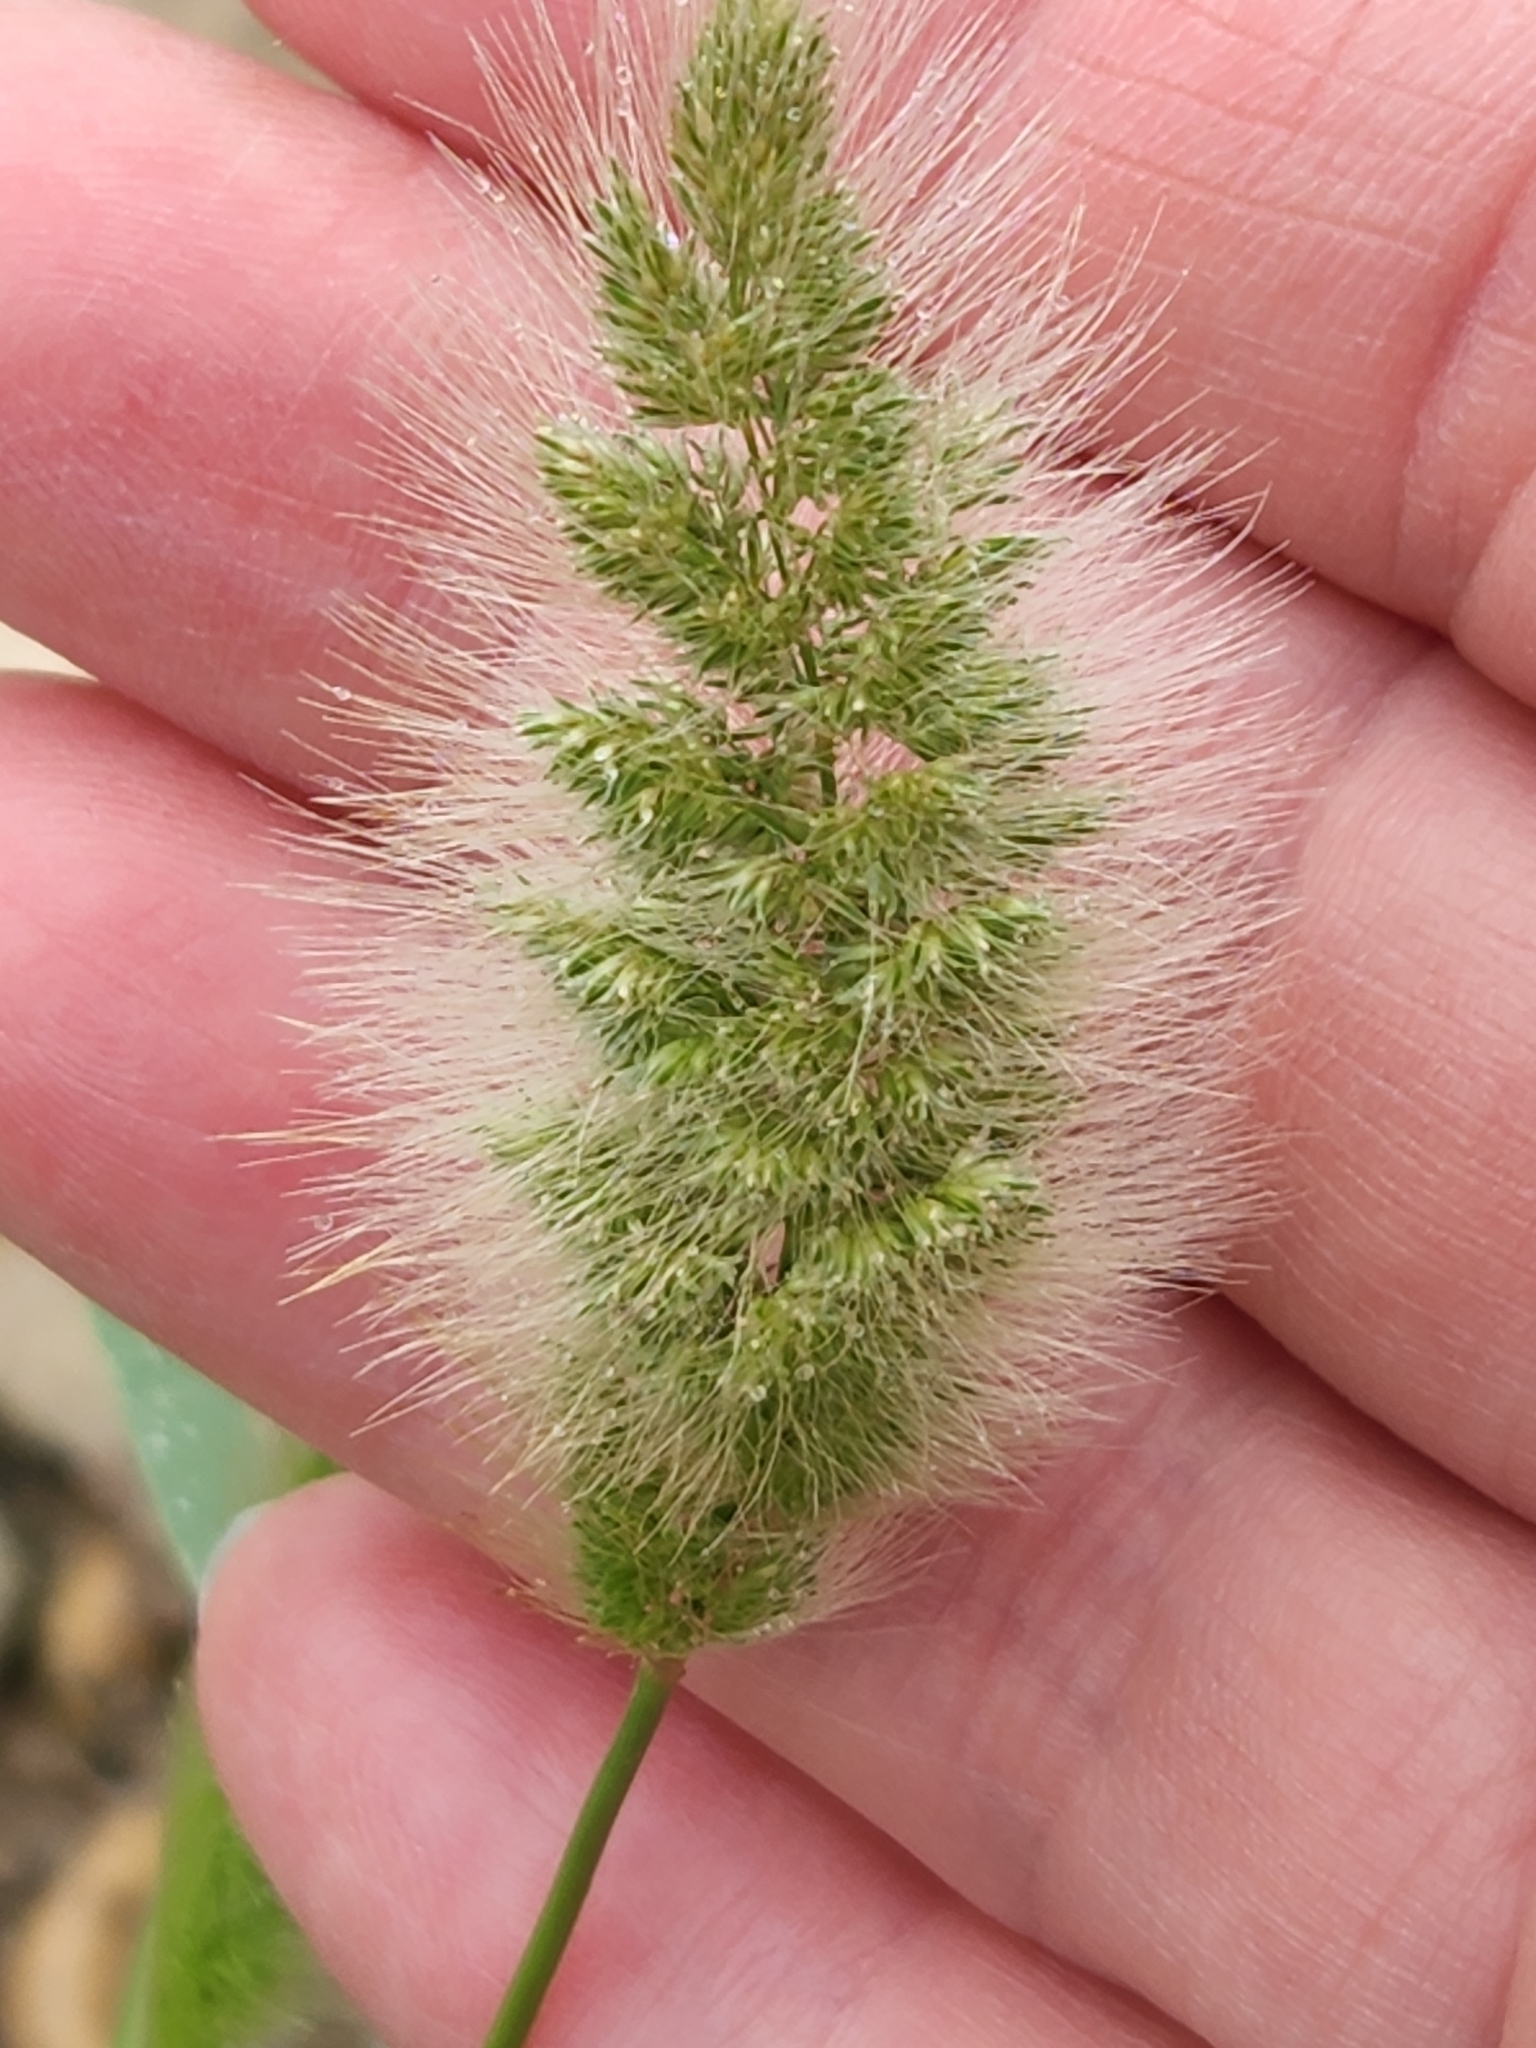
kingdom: Plantae
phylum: Tracheophyta
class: Liliopsida
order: Poales
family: Poaceae
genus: Polypogon
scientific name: Polypogon monspeliensis
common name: Annual rabbitsfoot grass
